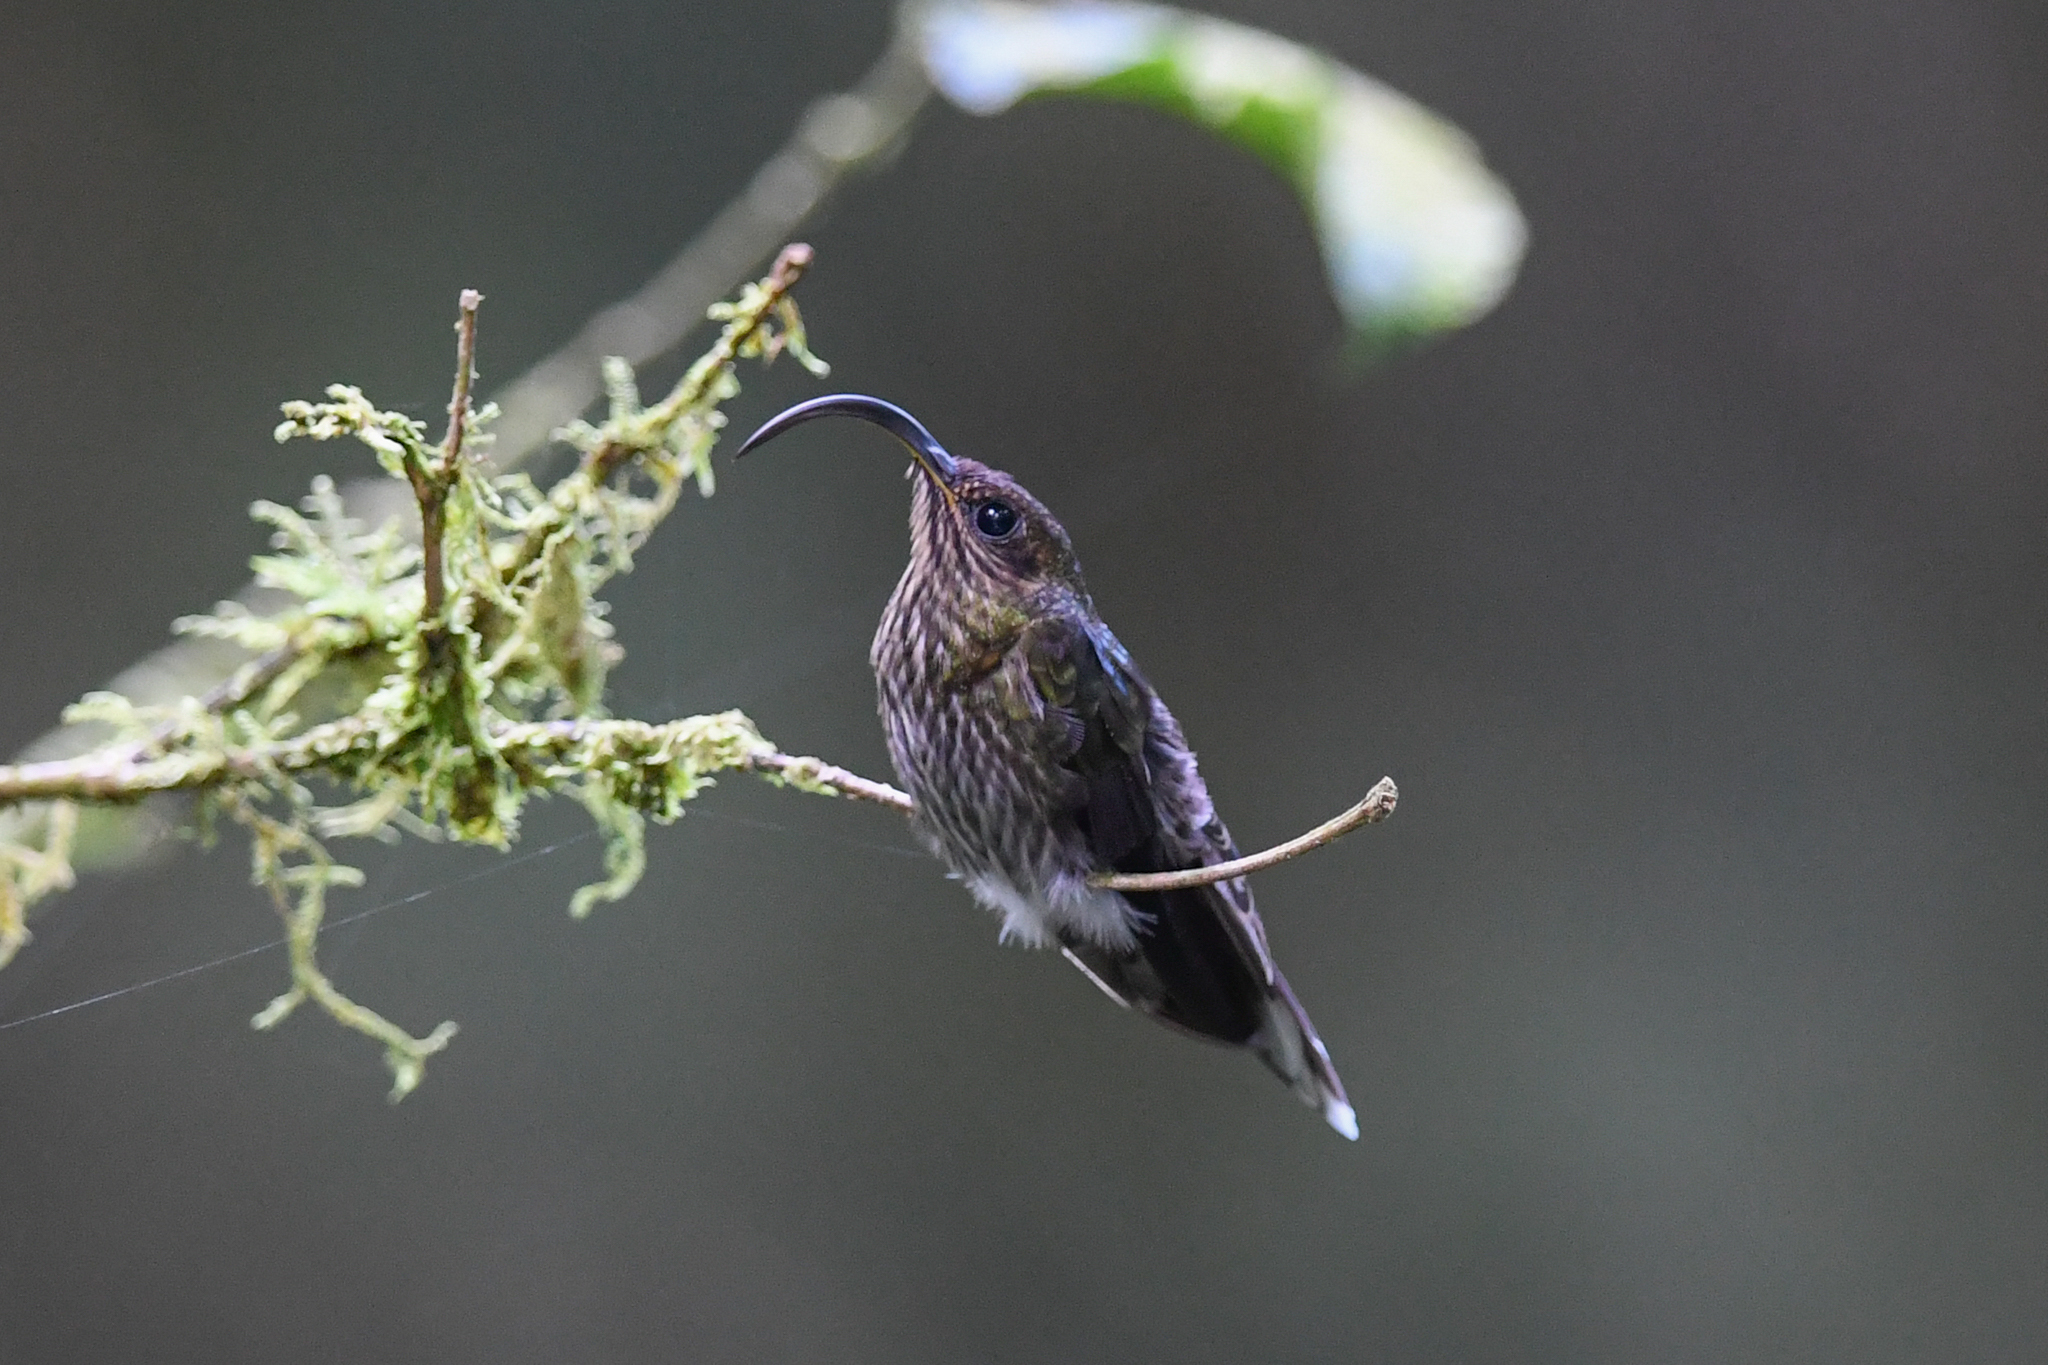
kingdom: Animalia
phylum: Chordata
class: Aves
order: Apodiformes
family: Trochilidae
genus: Eutoxeres
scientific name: Eutoxeres aquila
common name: White-tipped sicklebill
